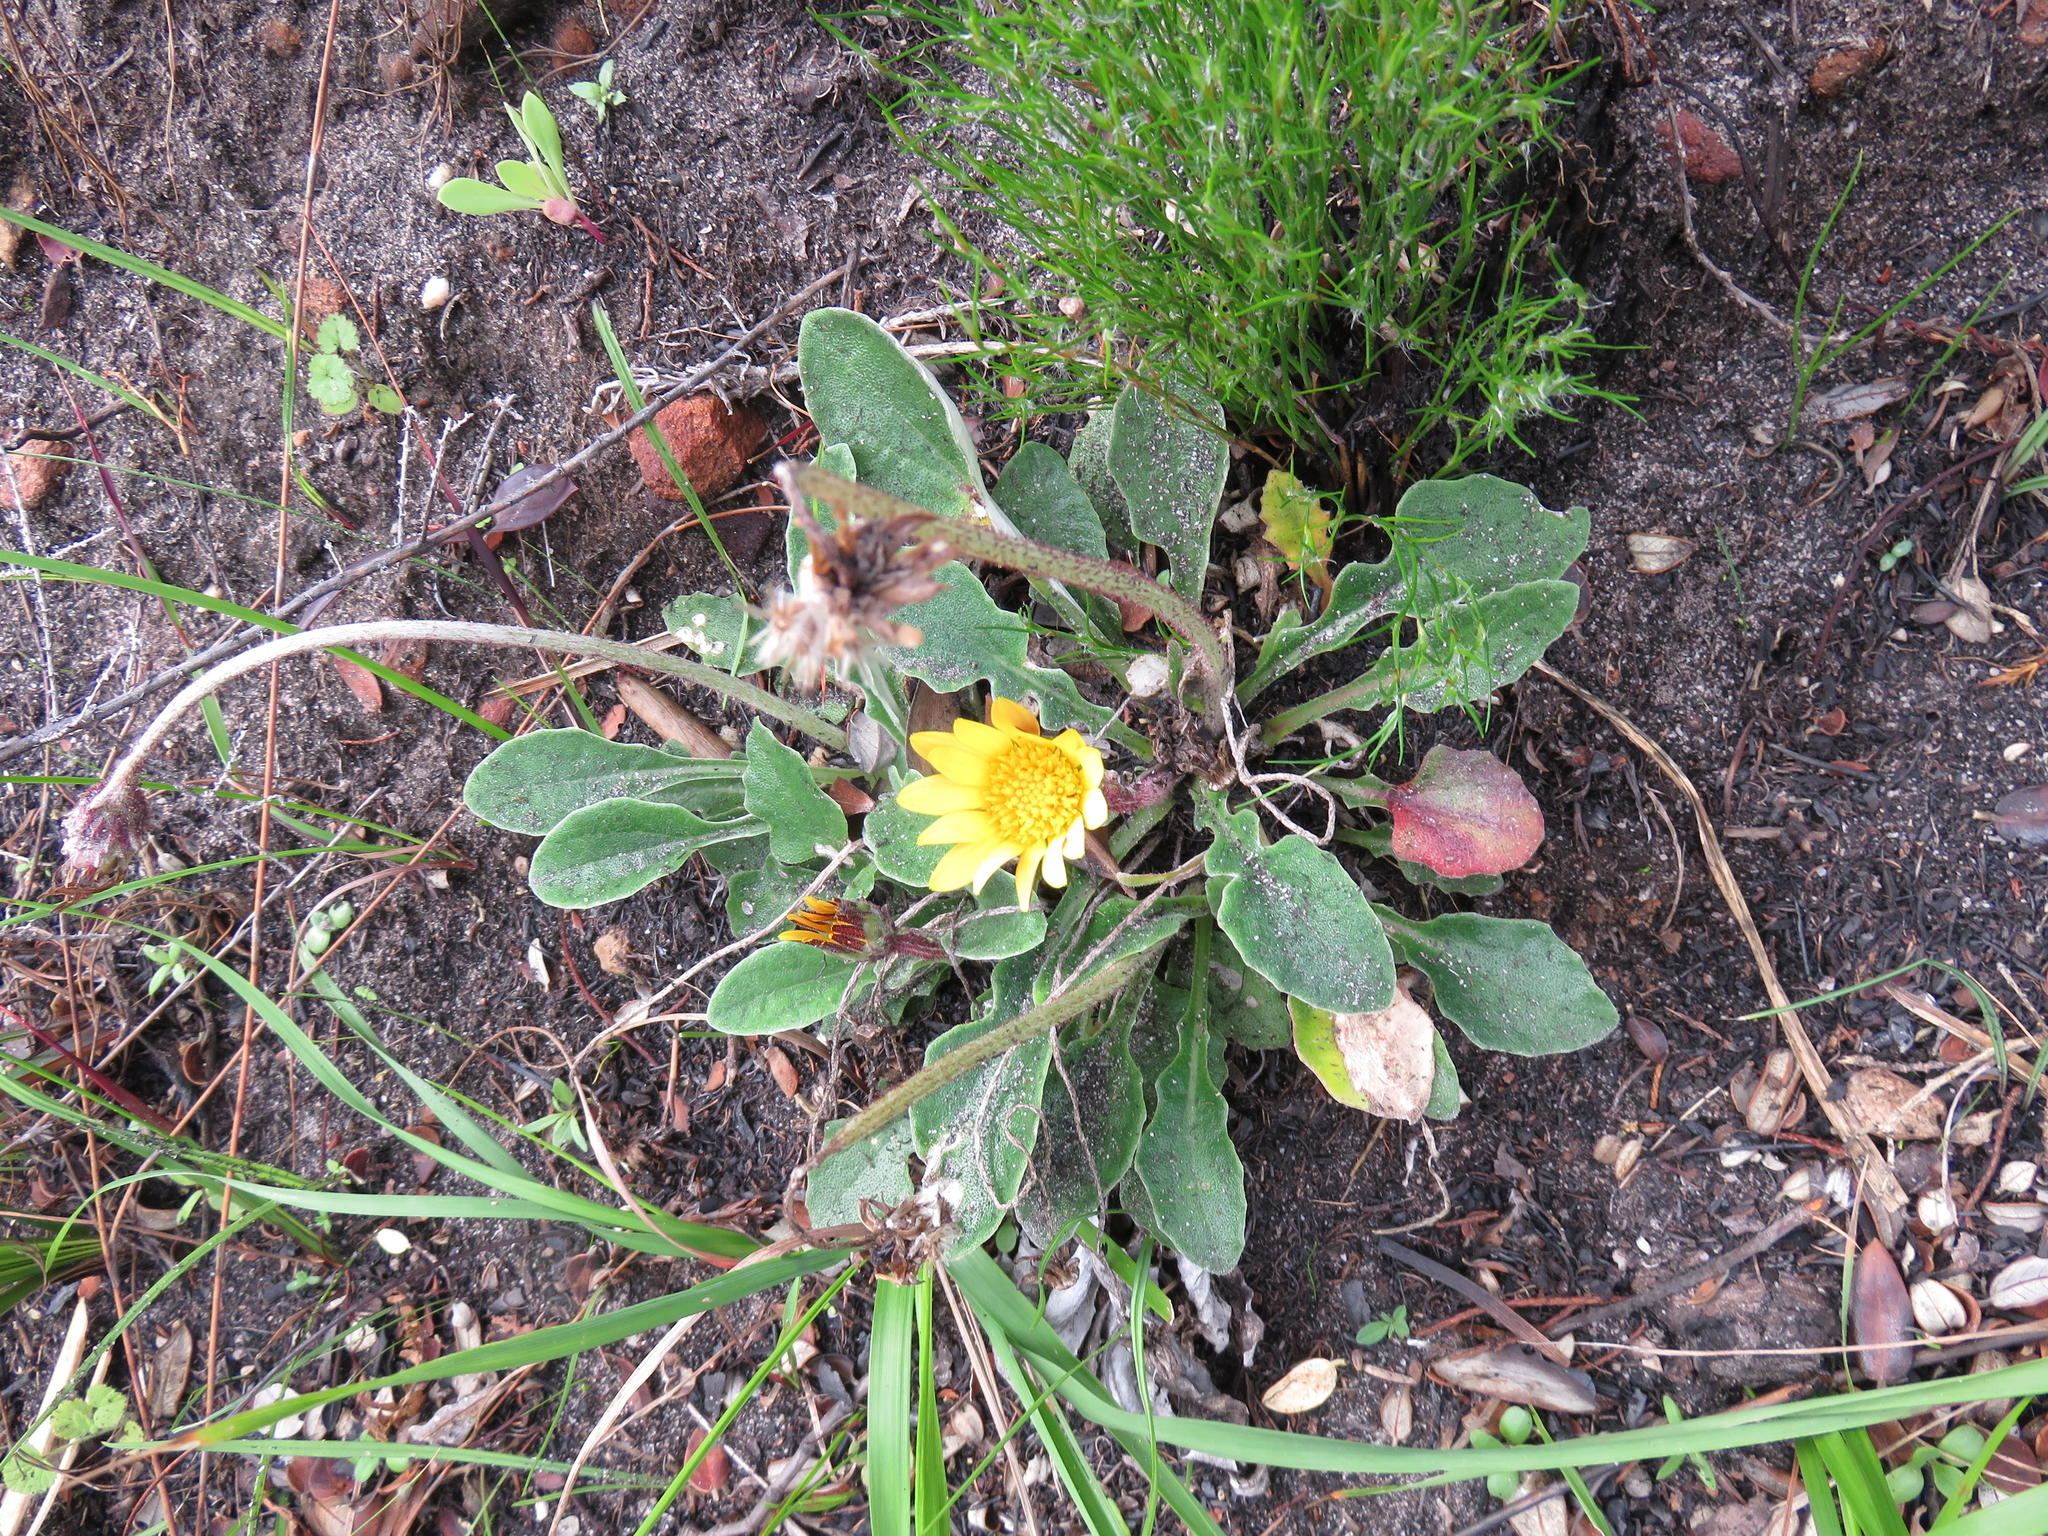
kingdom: Plantae
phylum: Tracheophyta
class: Magnoliopsida
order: Asterales
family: Asteraceae
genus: Haplocarpha
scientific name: Haplocarpha lanata
